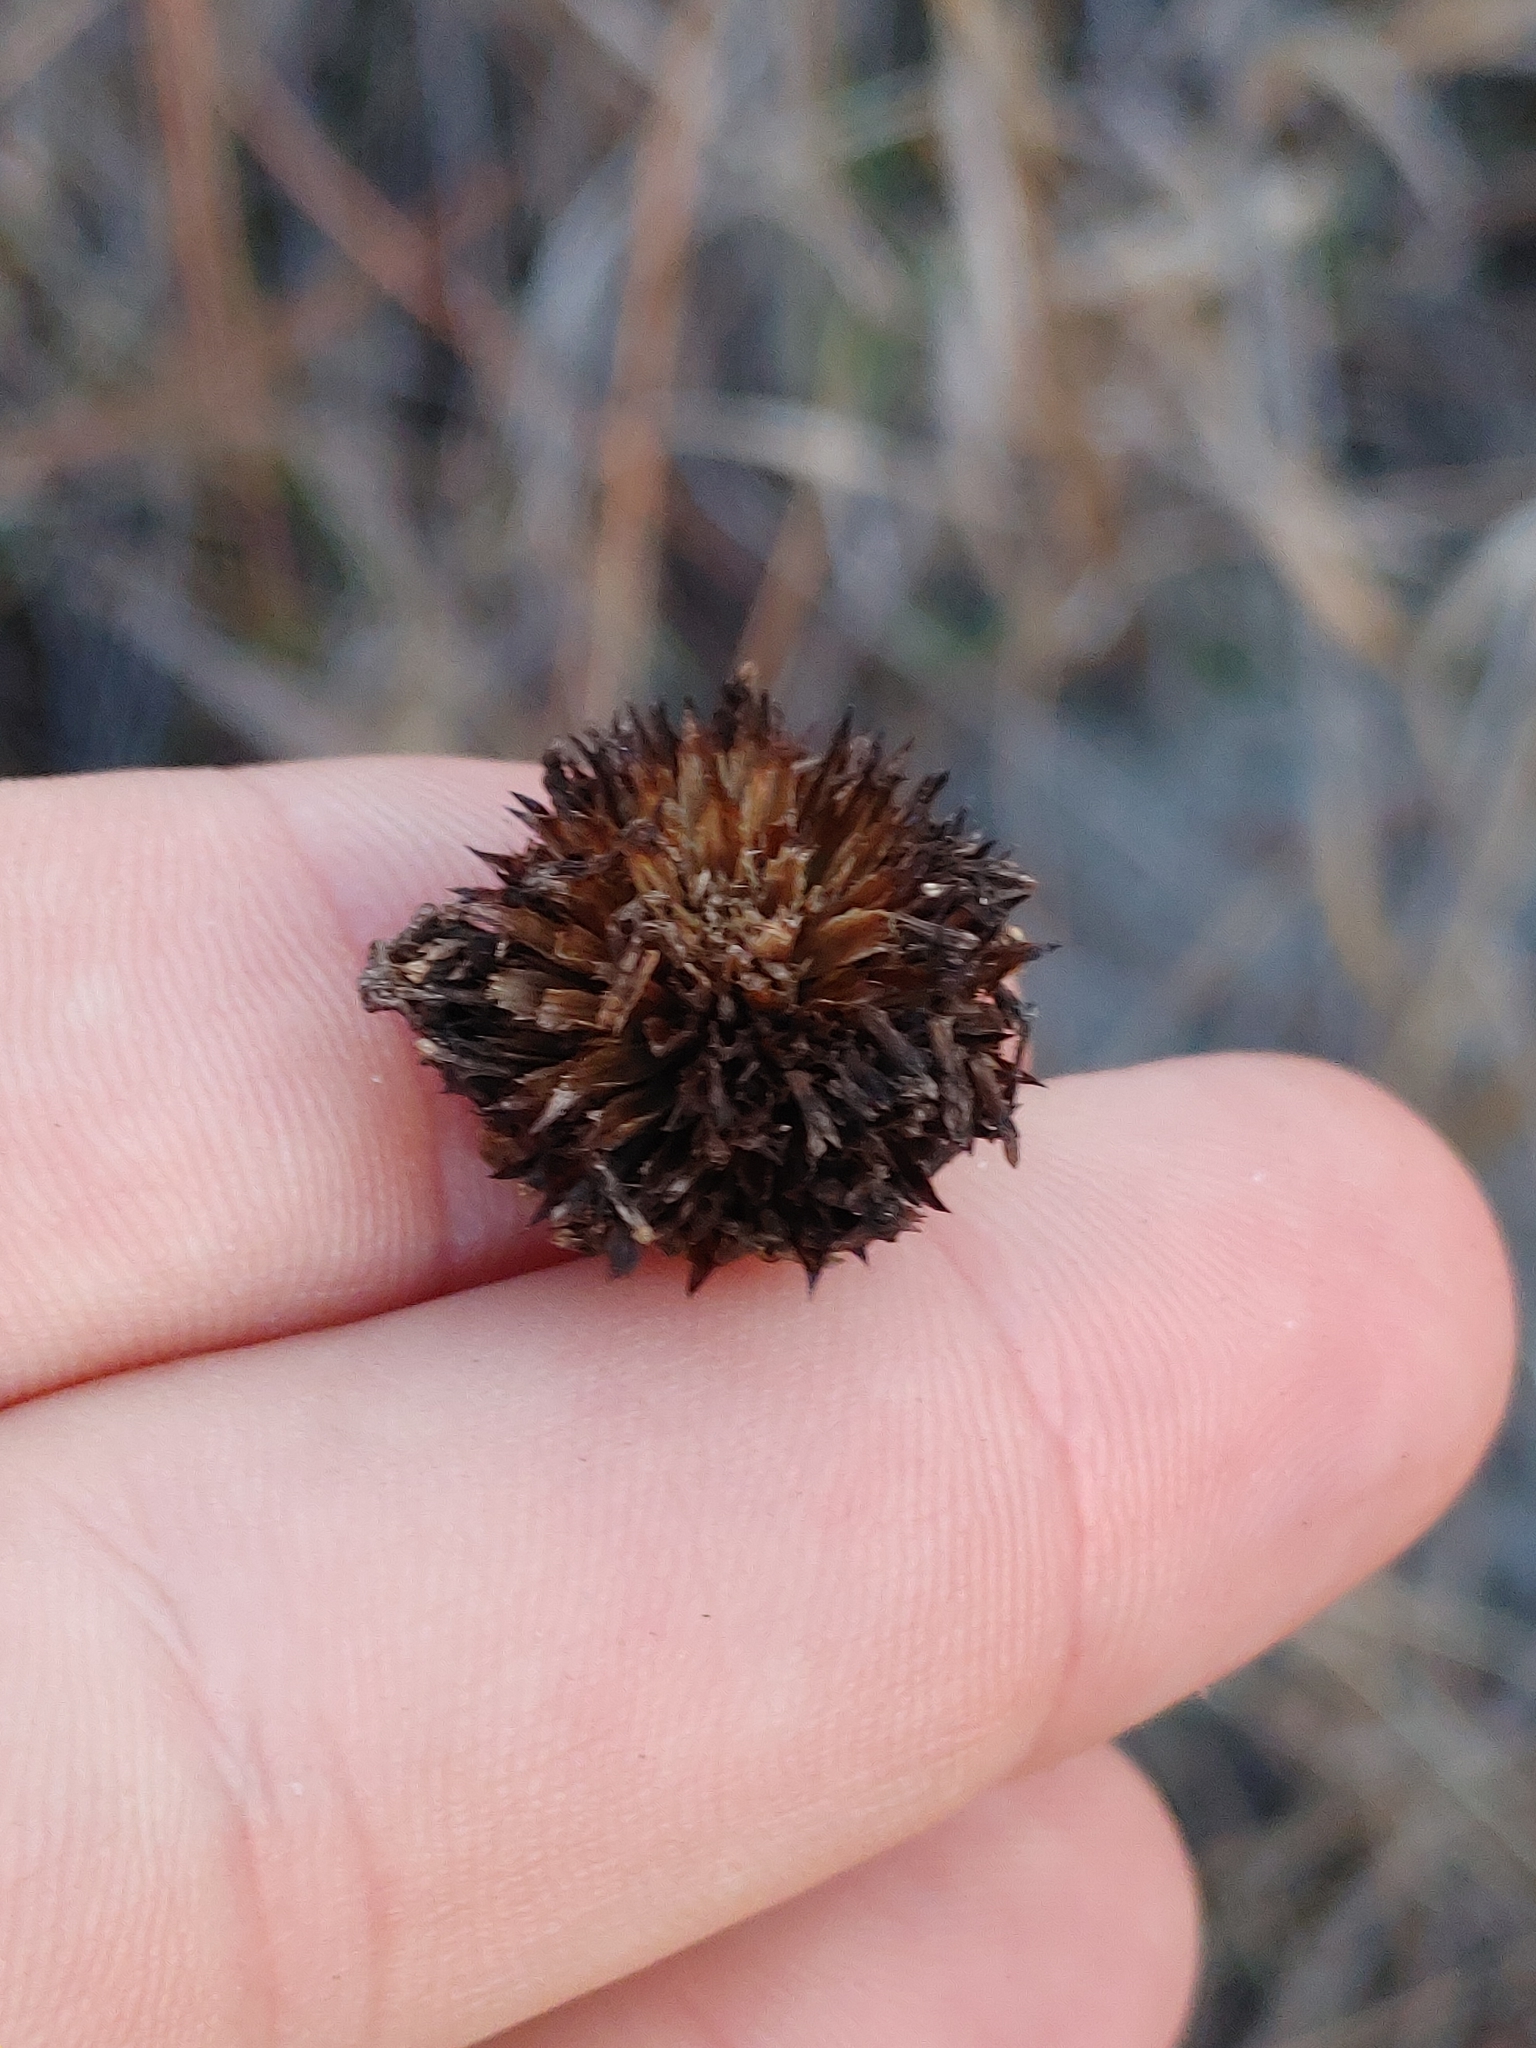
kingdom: Plantae
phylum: Tracheophyta
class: Magnoliopsida
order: Asterales
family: Asteraceae
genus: Helianthus
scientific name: Helianthus heterophyllus
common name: Wetland sunflower
